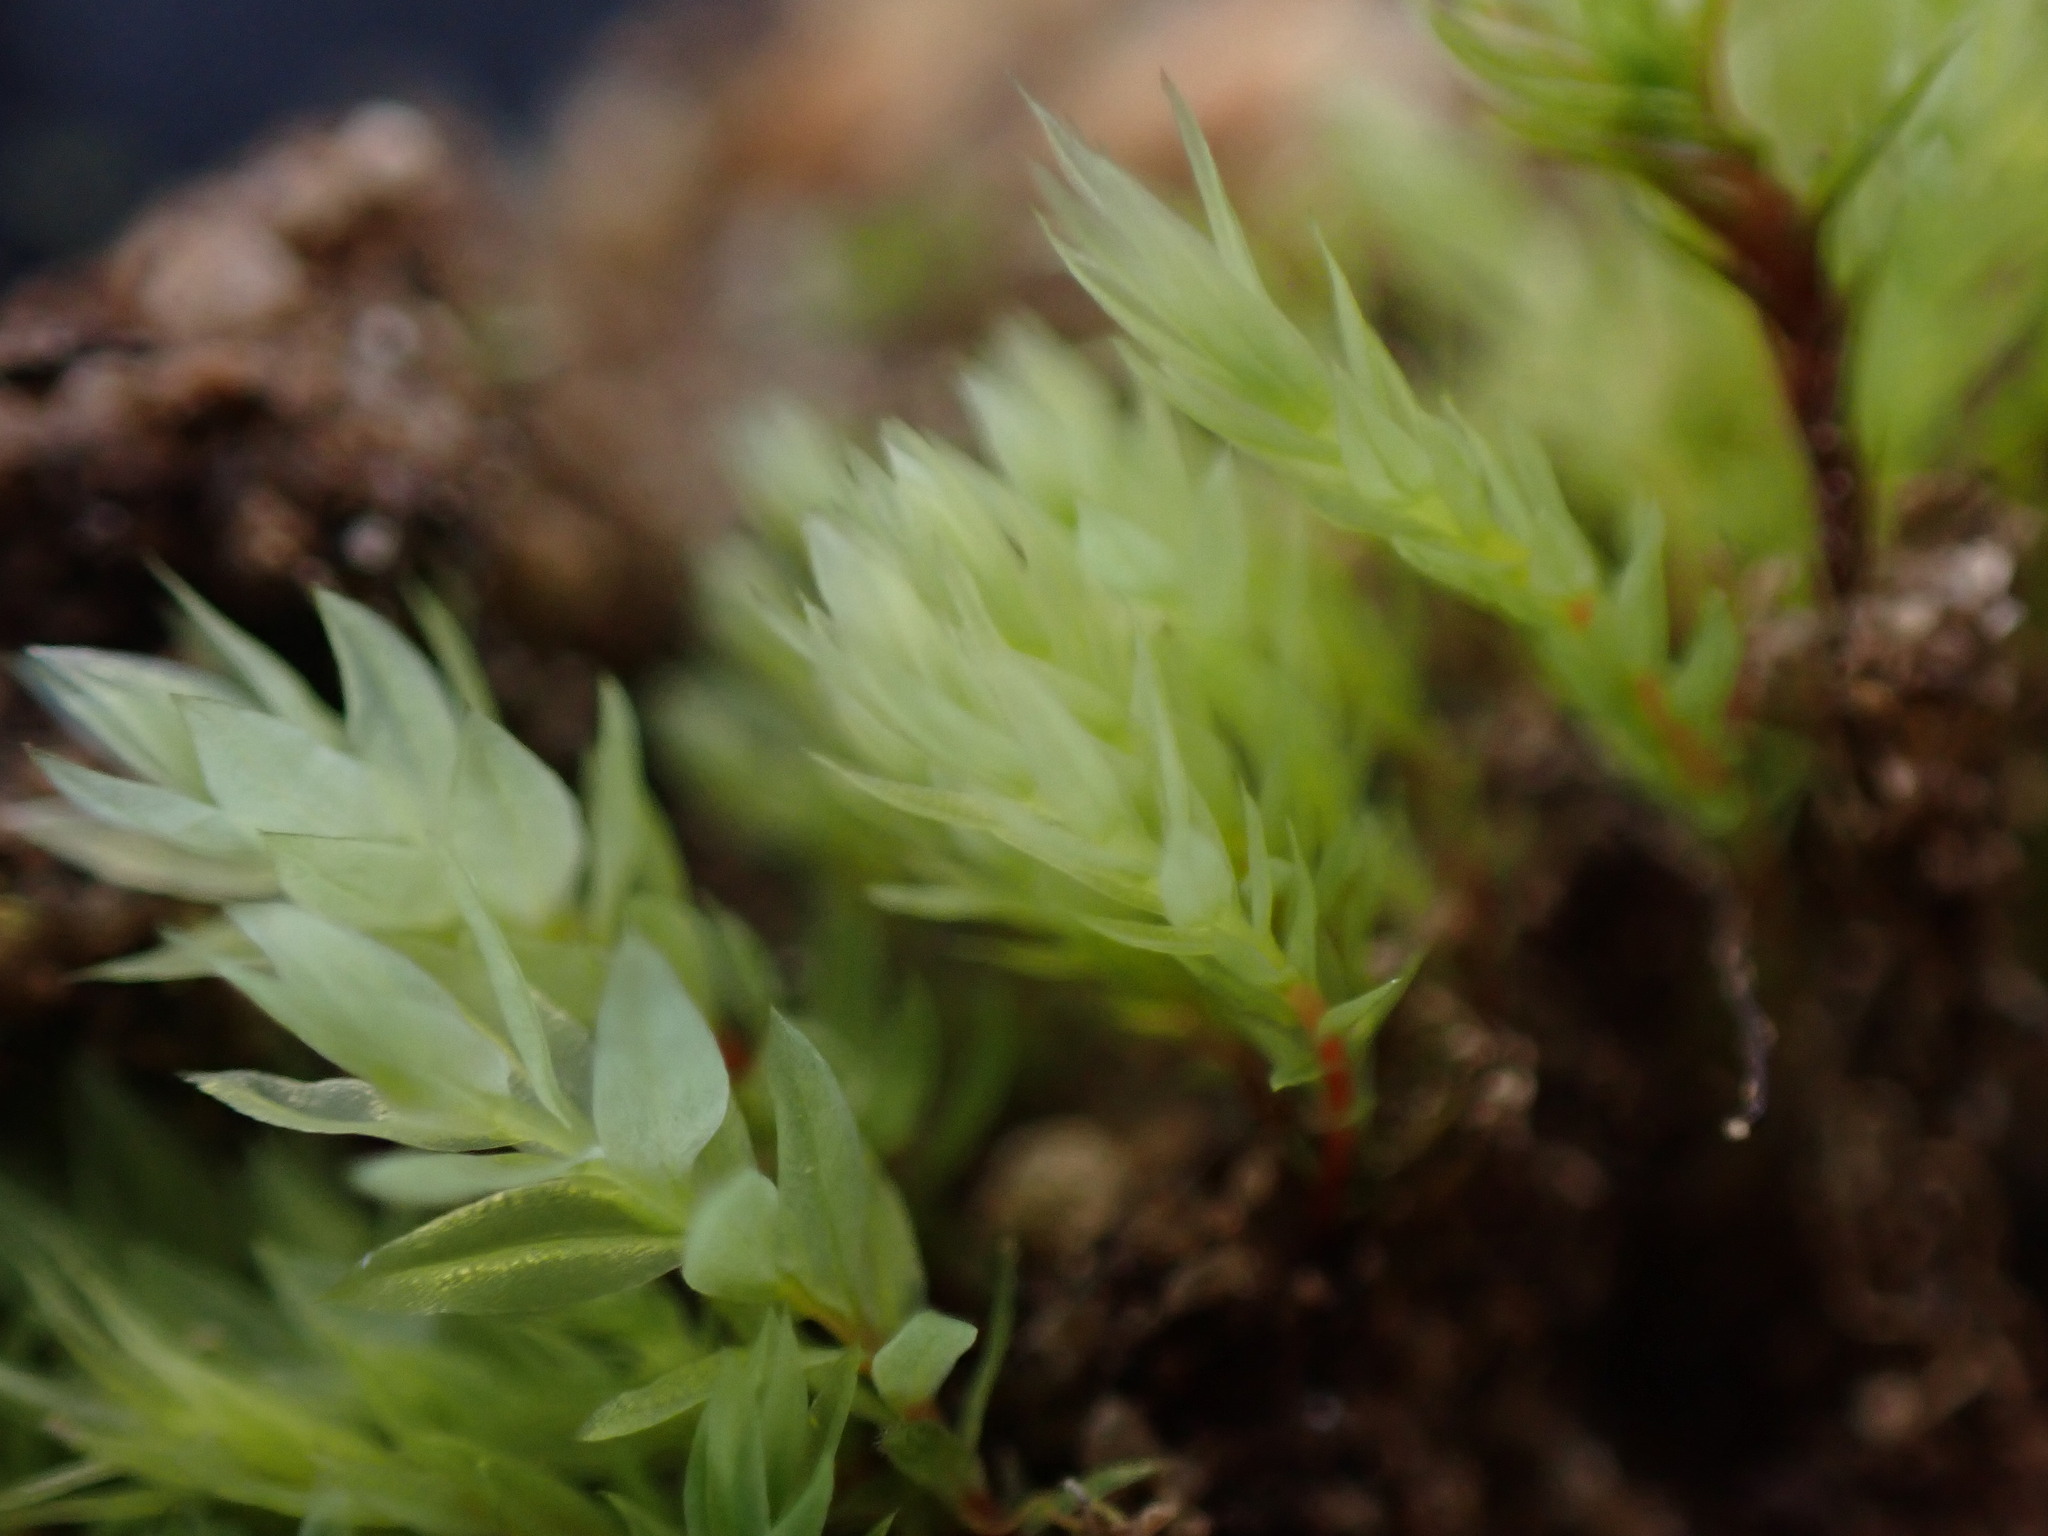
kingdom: Plantae
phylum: Bryophyta
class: Bryopsida
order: Bryales
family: Mniaceae
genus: Pohlia
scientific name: Pohlia cruda
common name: Opal nodding moss
